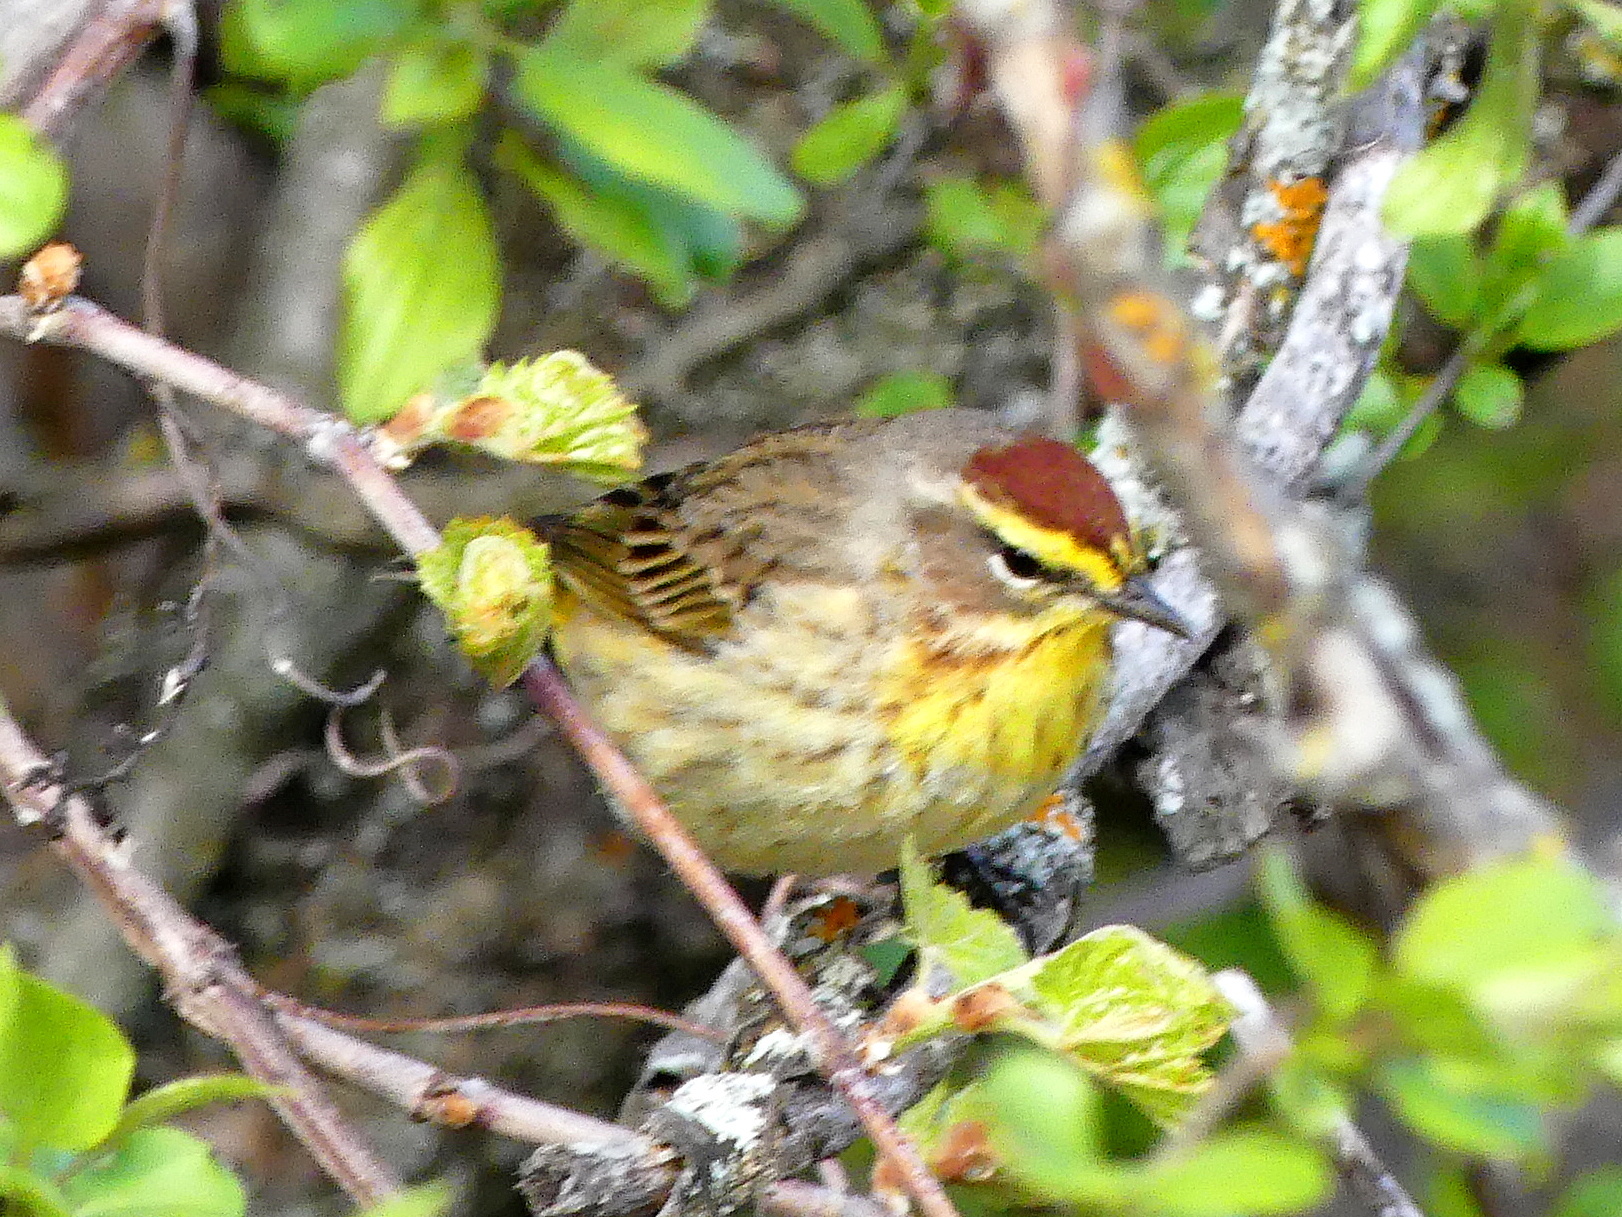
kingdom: Animalia
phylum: Chordata
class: Aves
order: Passeriformes
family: Parulidae
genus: Setophaga
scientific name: Setophaga palmarum
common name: Palm warbler
